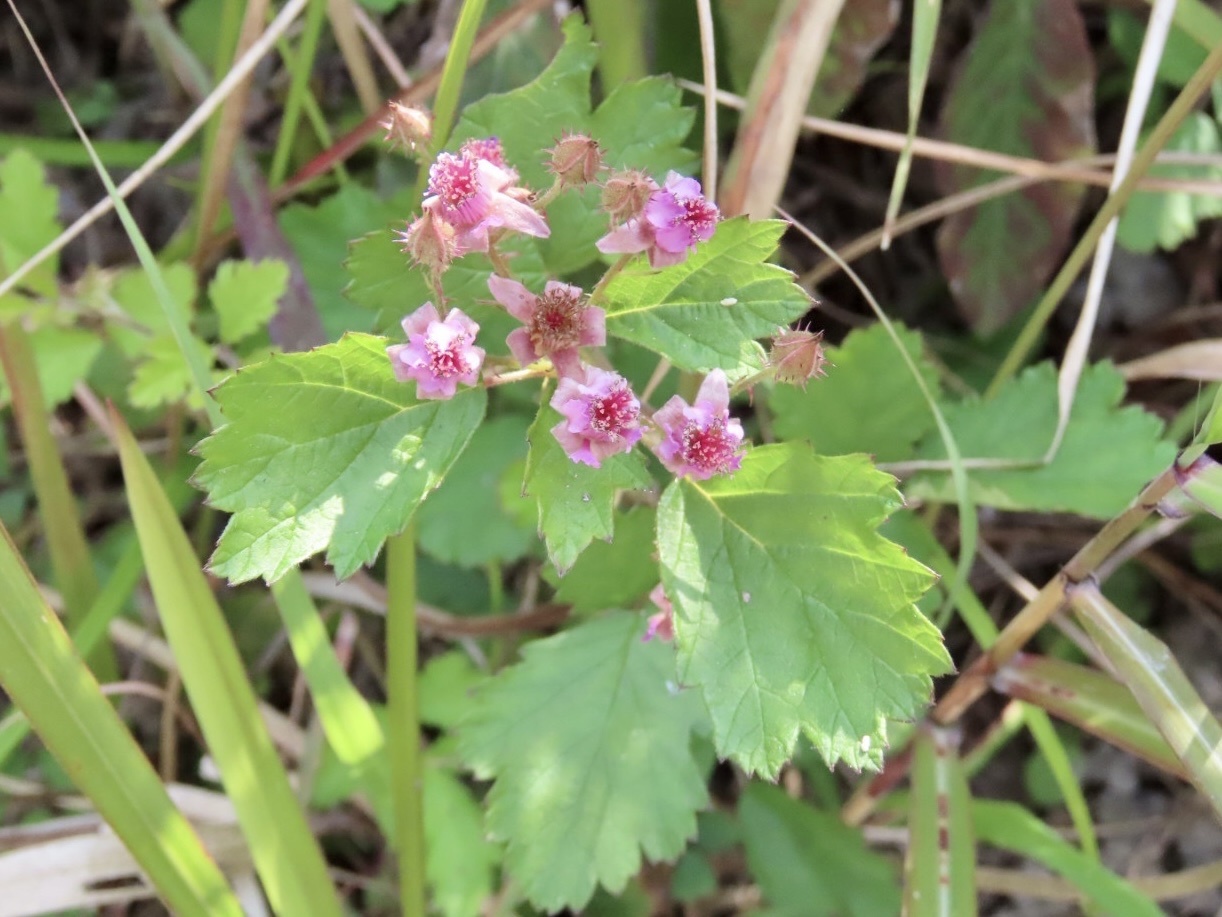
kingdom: Plantae
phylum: Tracheophyta
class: Magnoliopsida
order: Rosales
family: Rosaceae
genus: Rubus
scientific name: Rubus parvifolius
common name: Threeleaf blackberry
